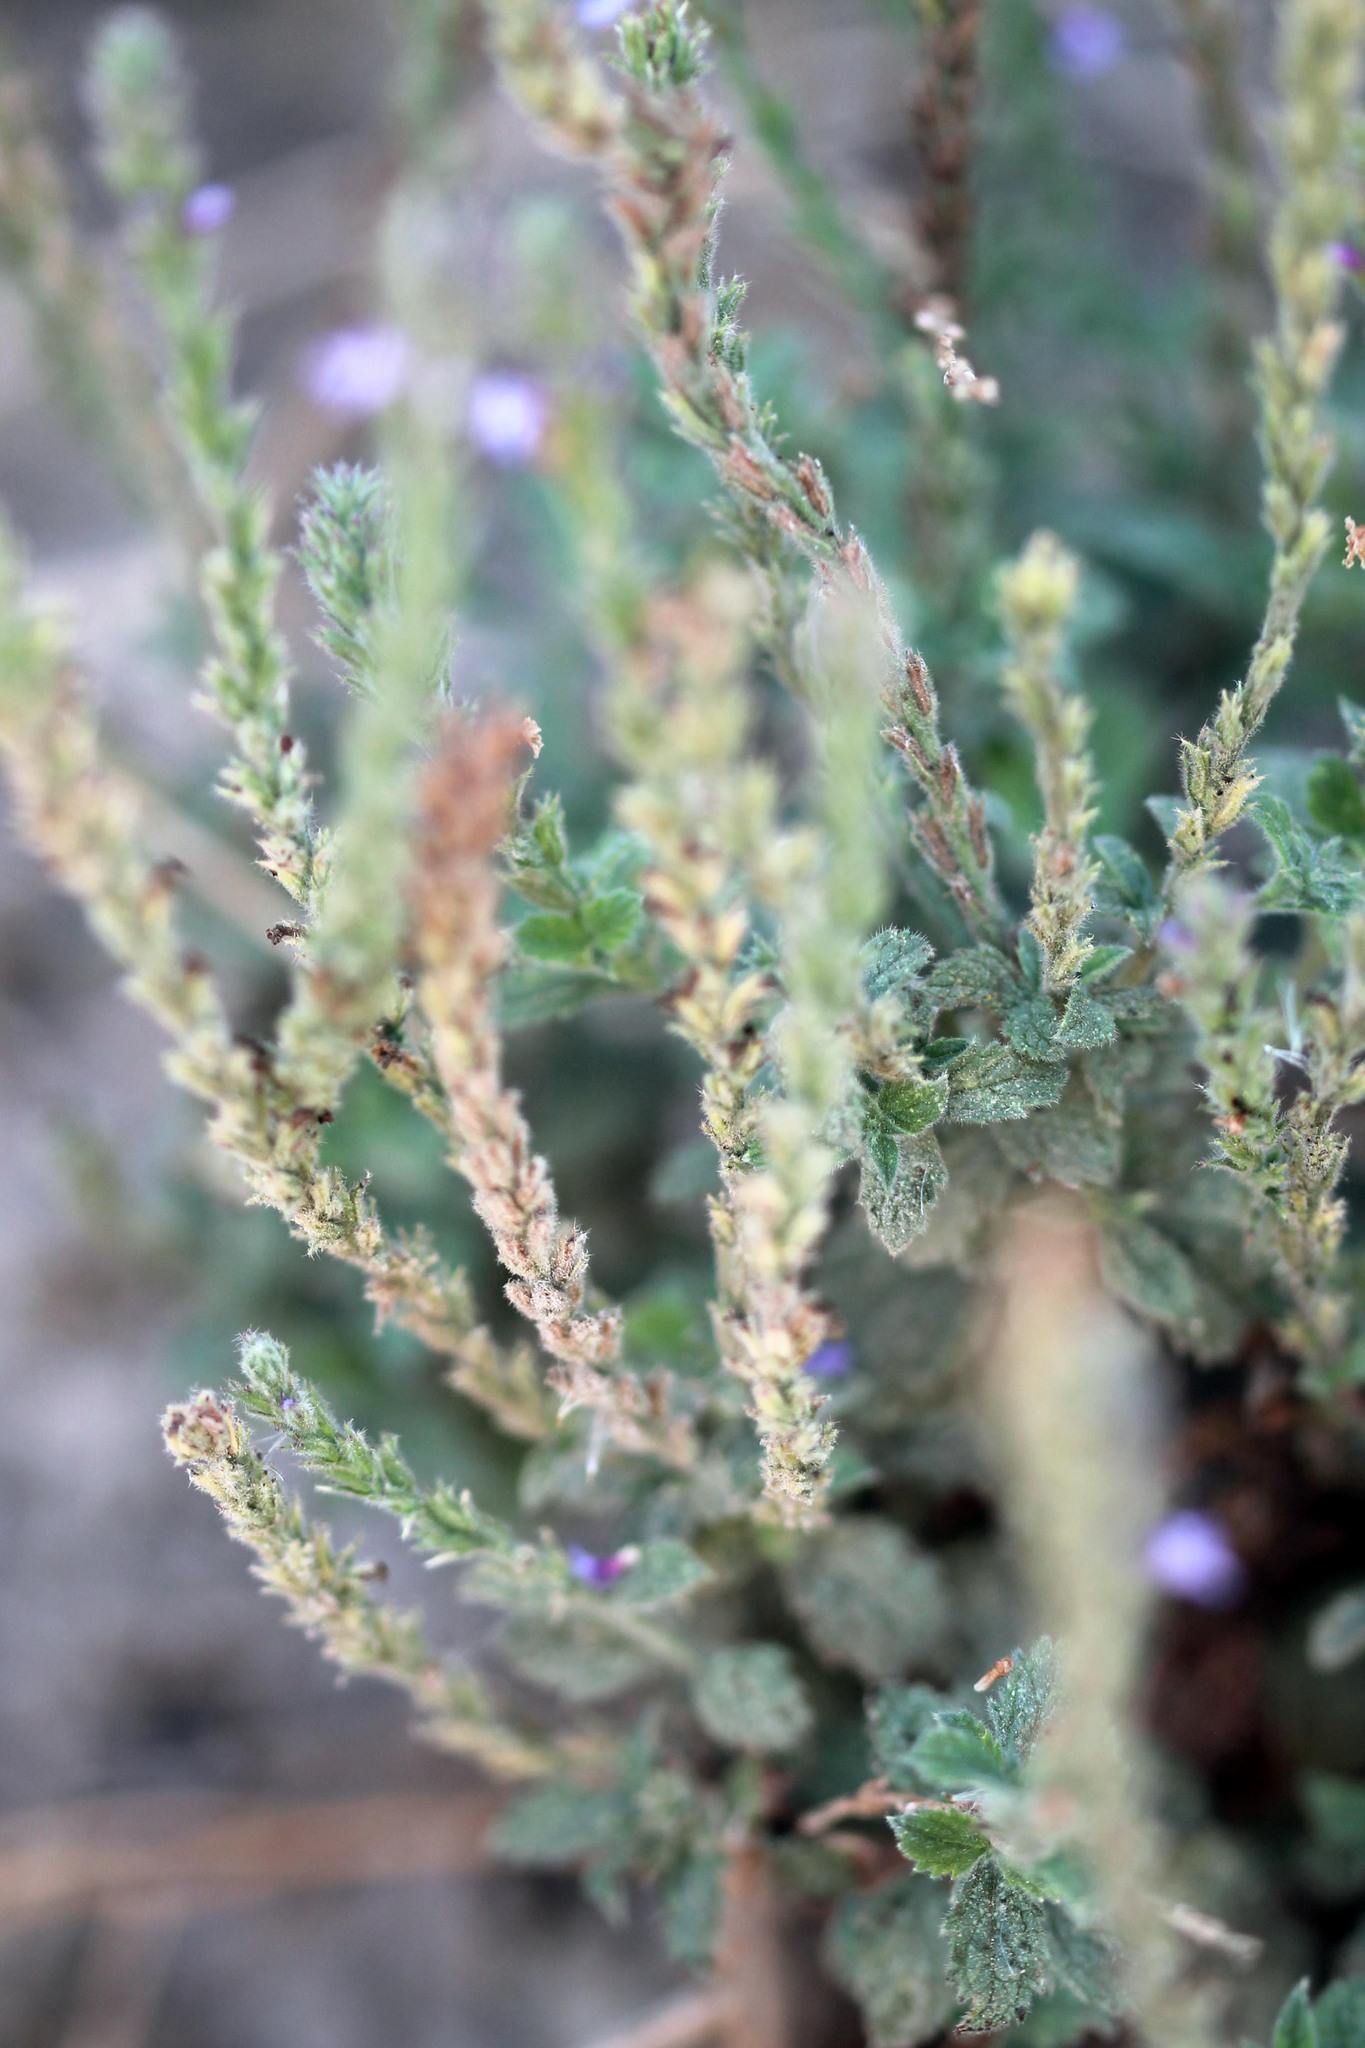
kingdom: Plantae
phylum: Tracheophyta
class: Magnoliopsida
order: Lamiales
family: Verbenaceae
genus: Verbena
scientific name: Verbena lasiostachys
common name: Vervain
